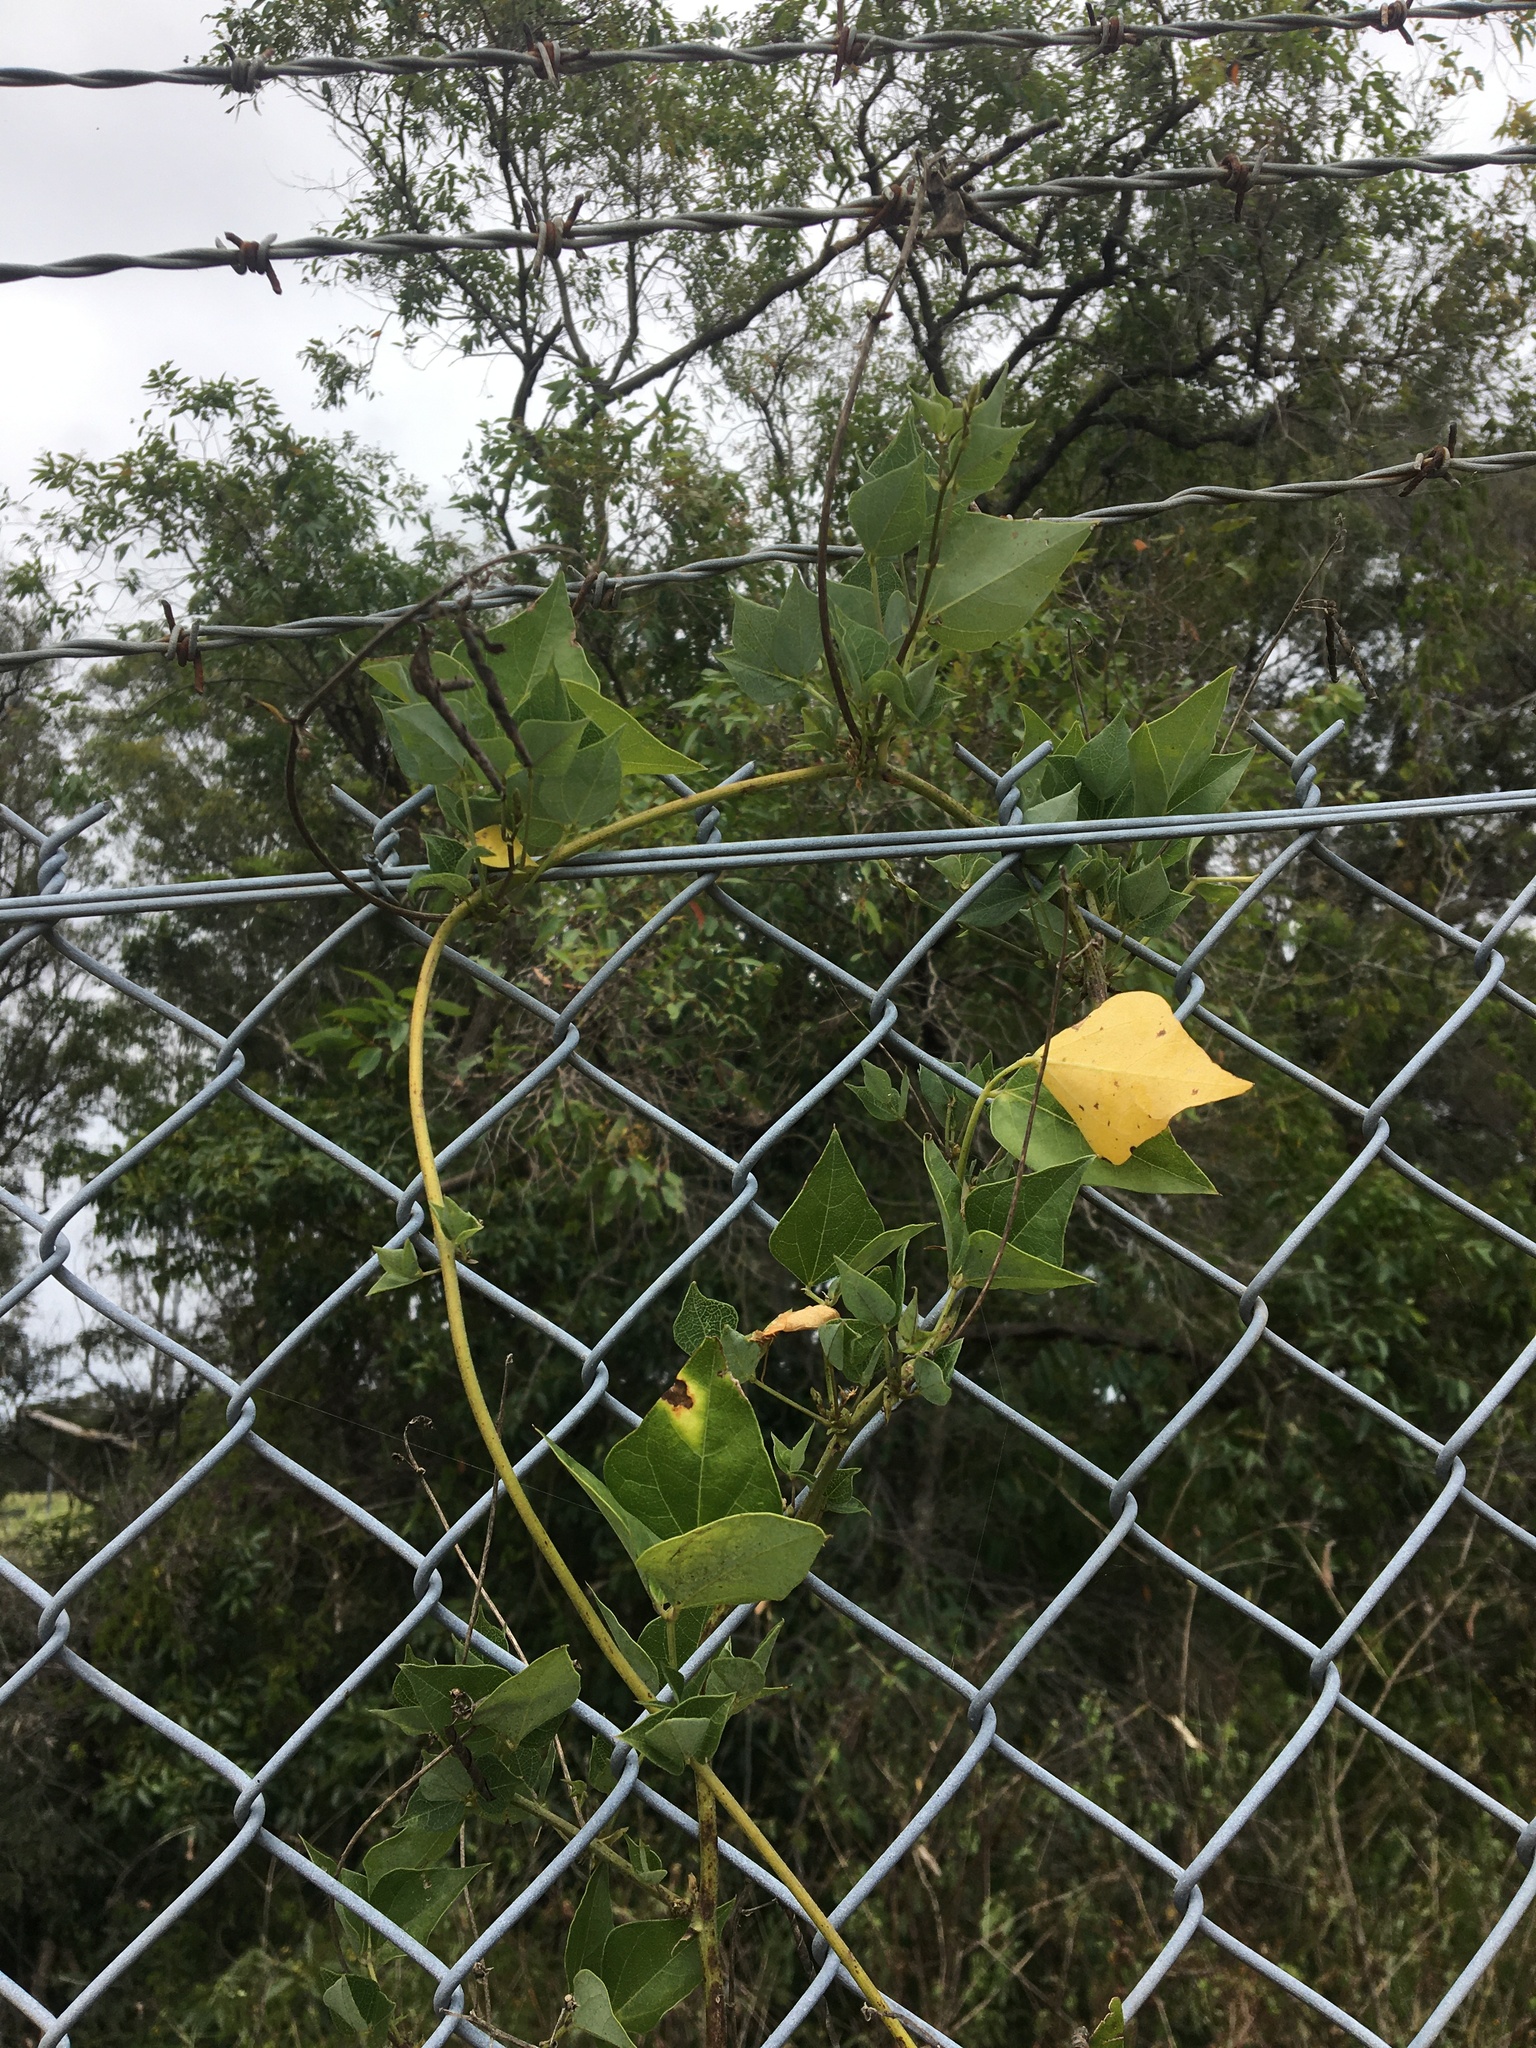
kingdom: Plantae
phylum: Tracheophyta
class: Magnoliopsida
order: Fabales
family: Fabaceae
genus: Dipogon
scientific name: Dipogon lignosus
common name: Okie bean
